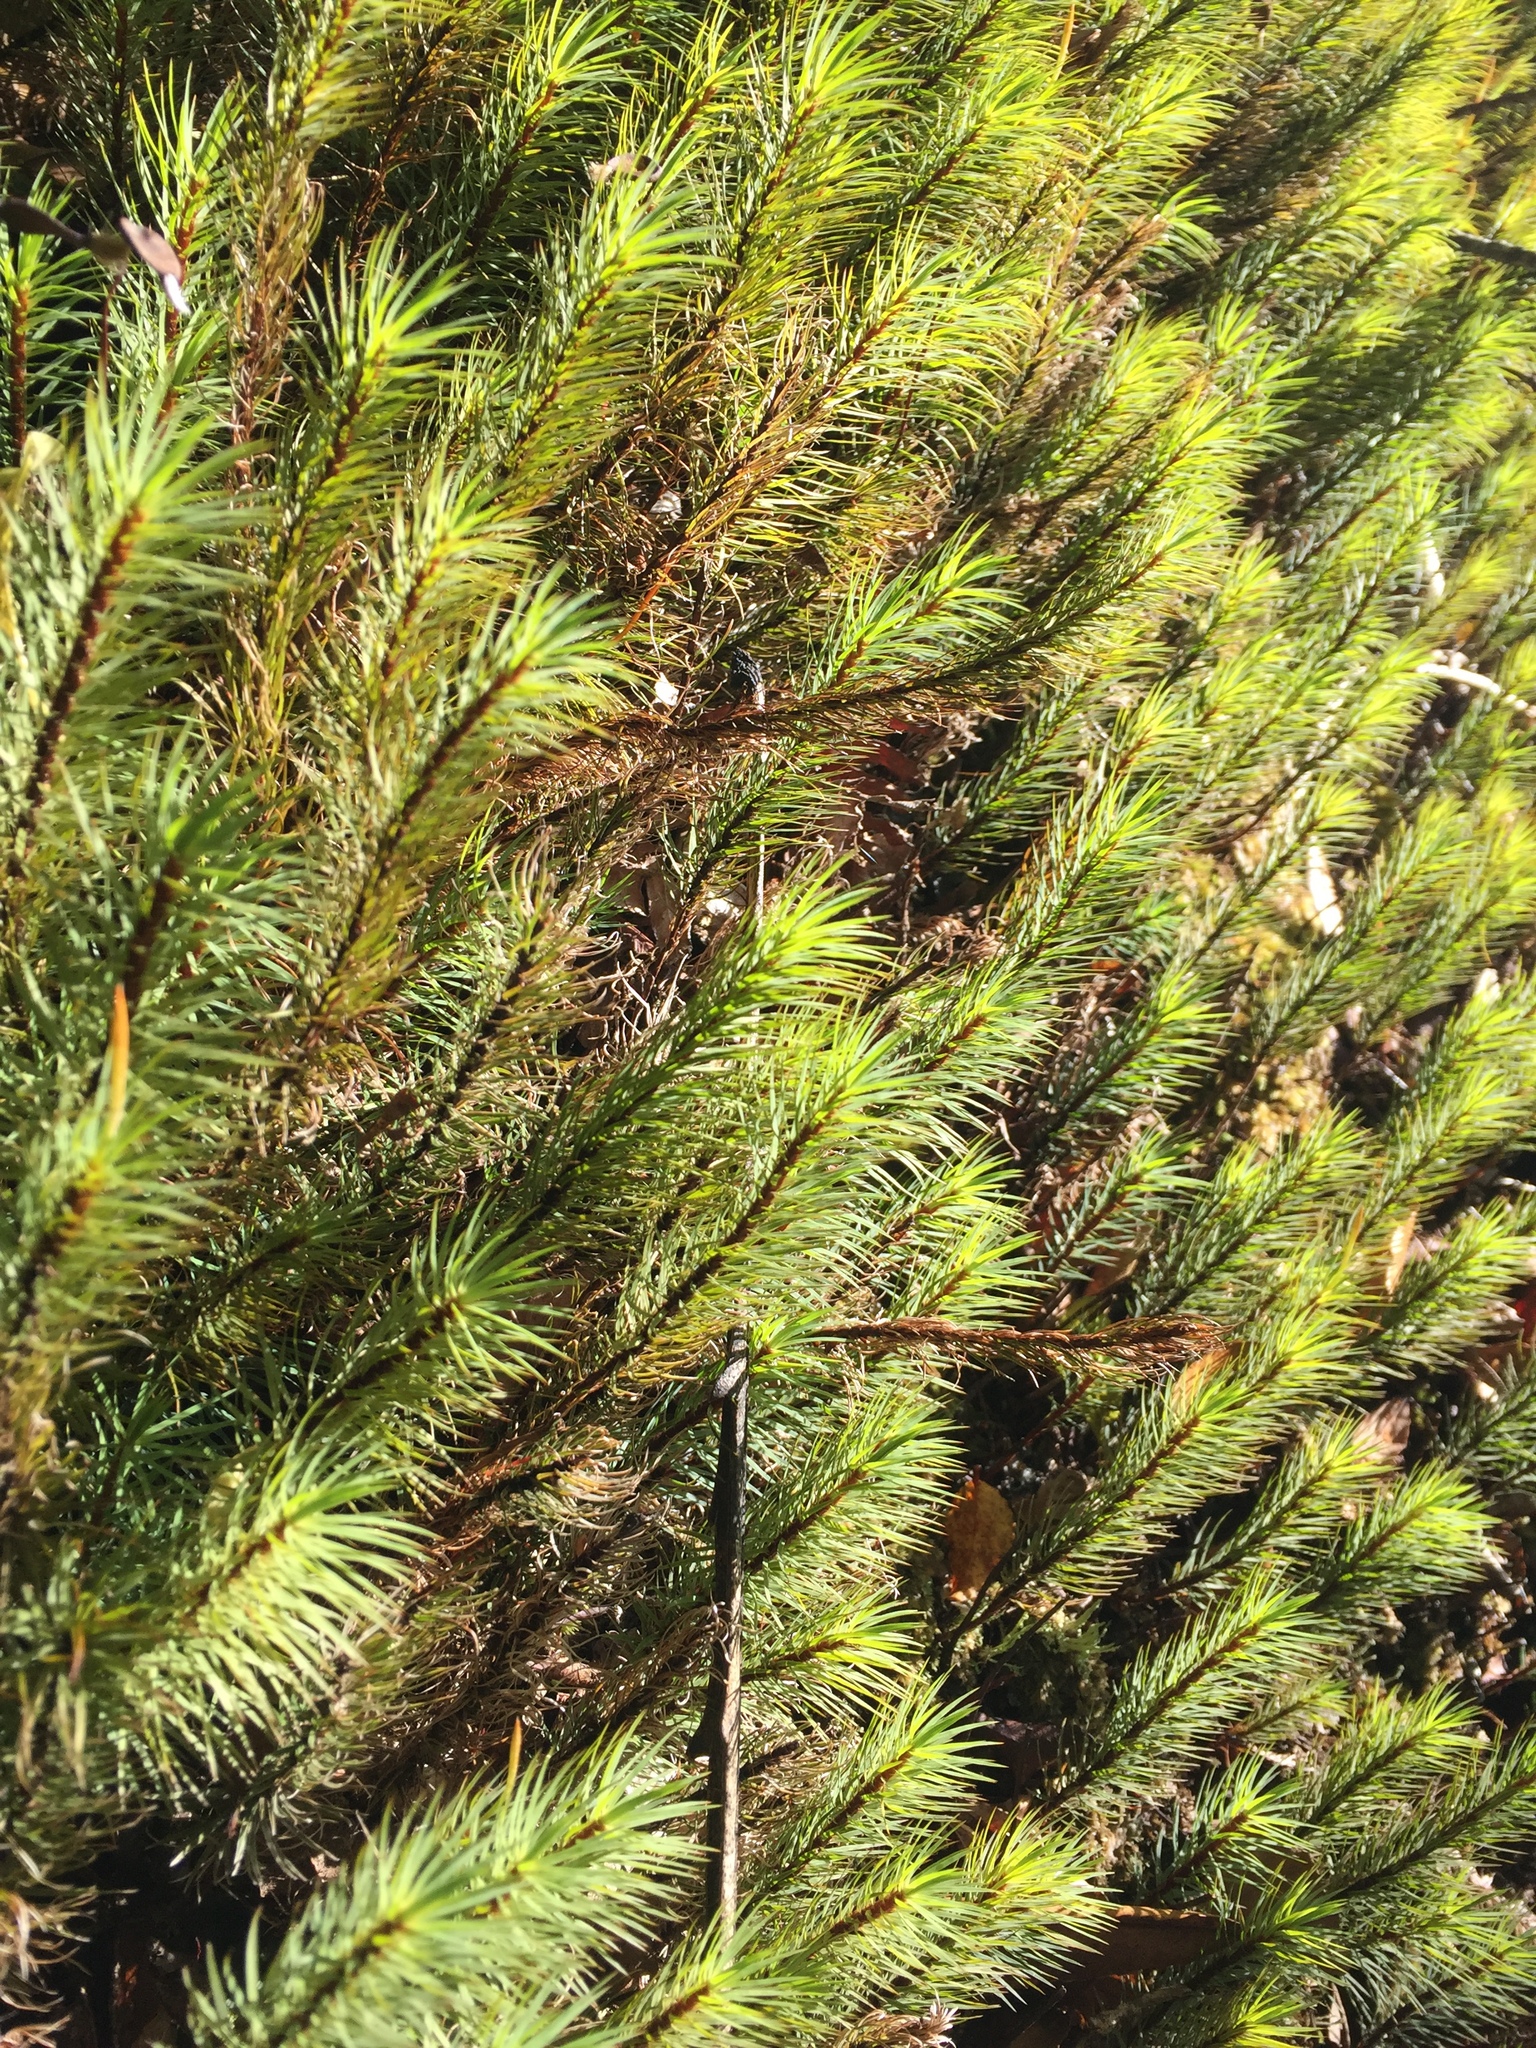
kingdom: Plantae
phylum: Bryophyta
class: Polytrichopsida
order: Polytrichales
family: Polytrichaceae
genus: Dawsonia
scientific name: Dawsonia superba
